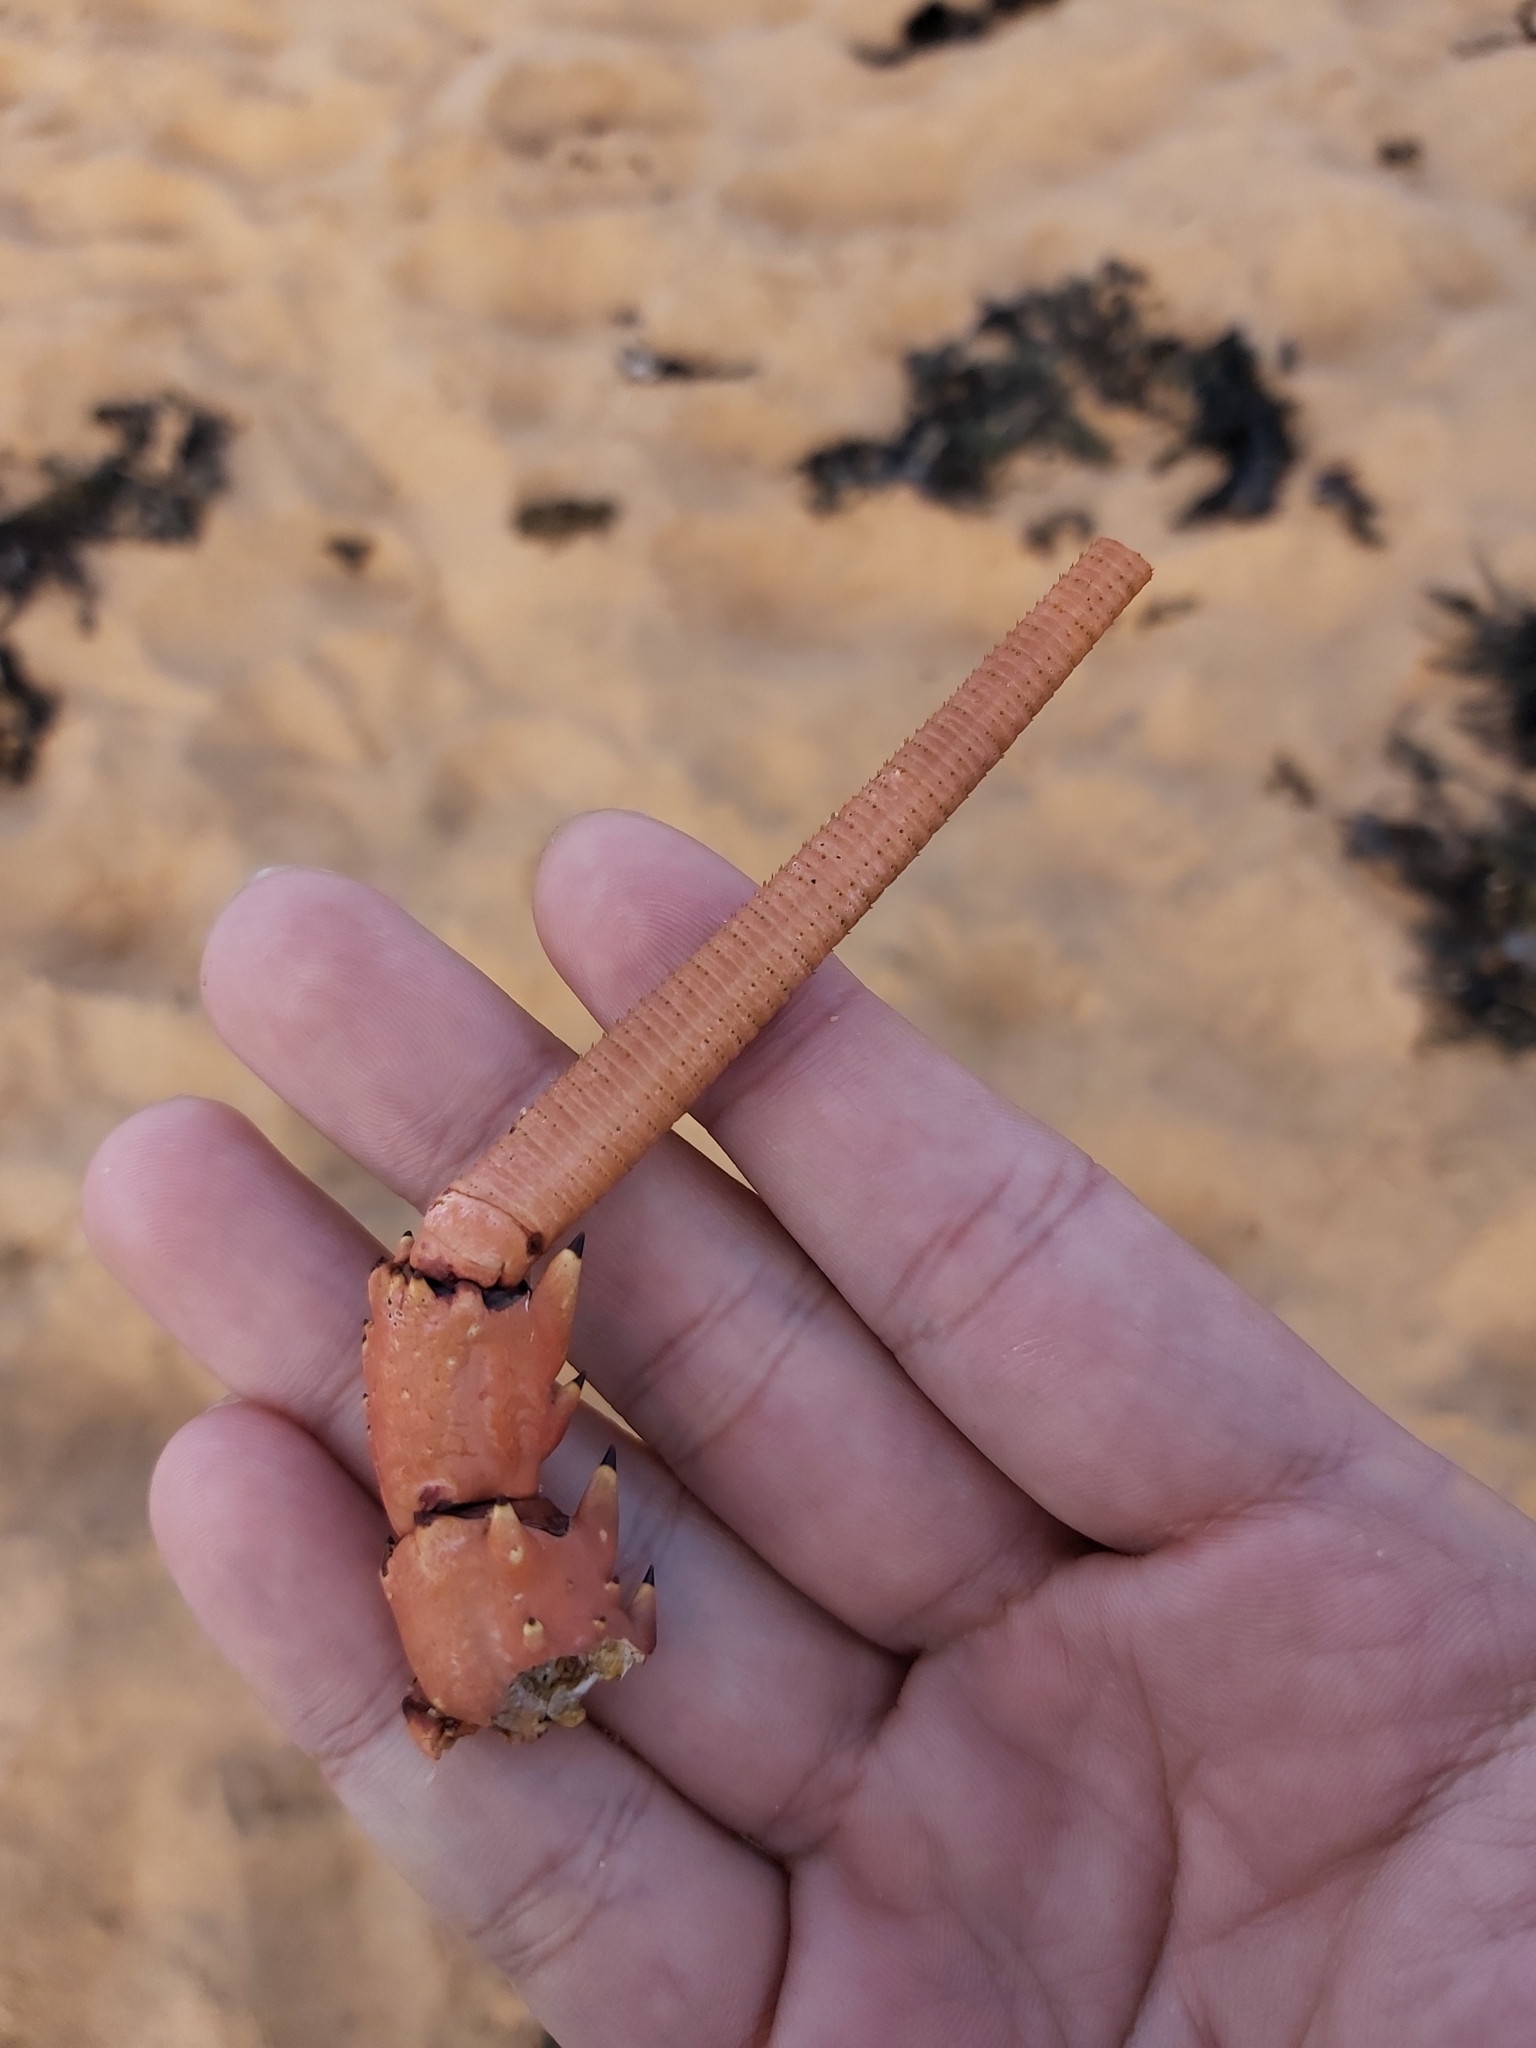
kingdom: Animalia
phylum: Arthropoda
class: Malacostraca
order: Decapoda
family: Palinuridae
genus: Sagmariasus
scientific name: Sagmariasus verreauxi
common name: Green rock lobster
